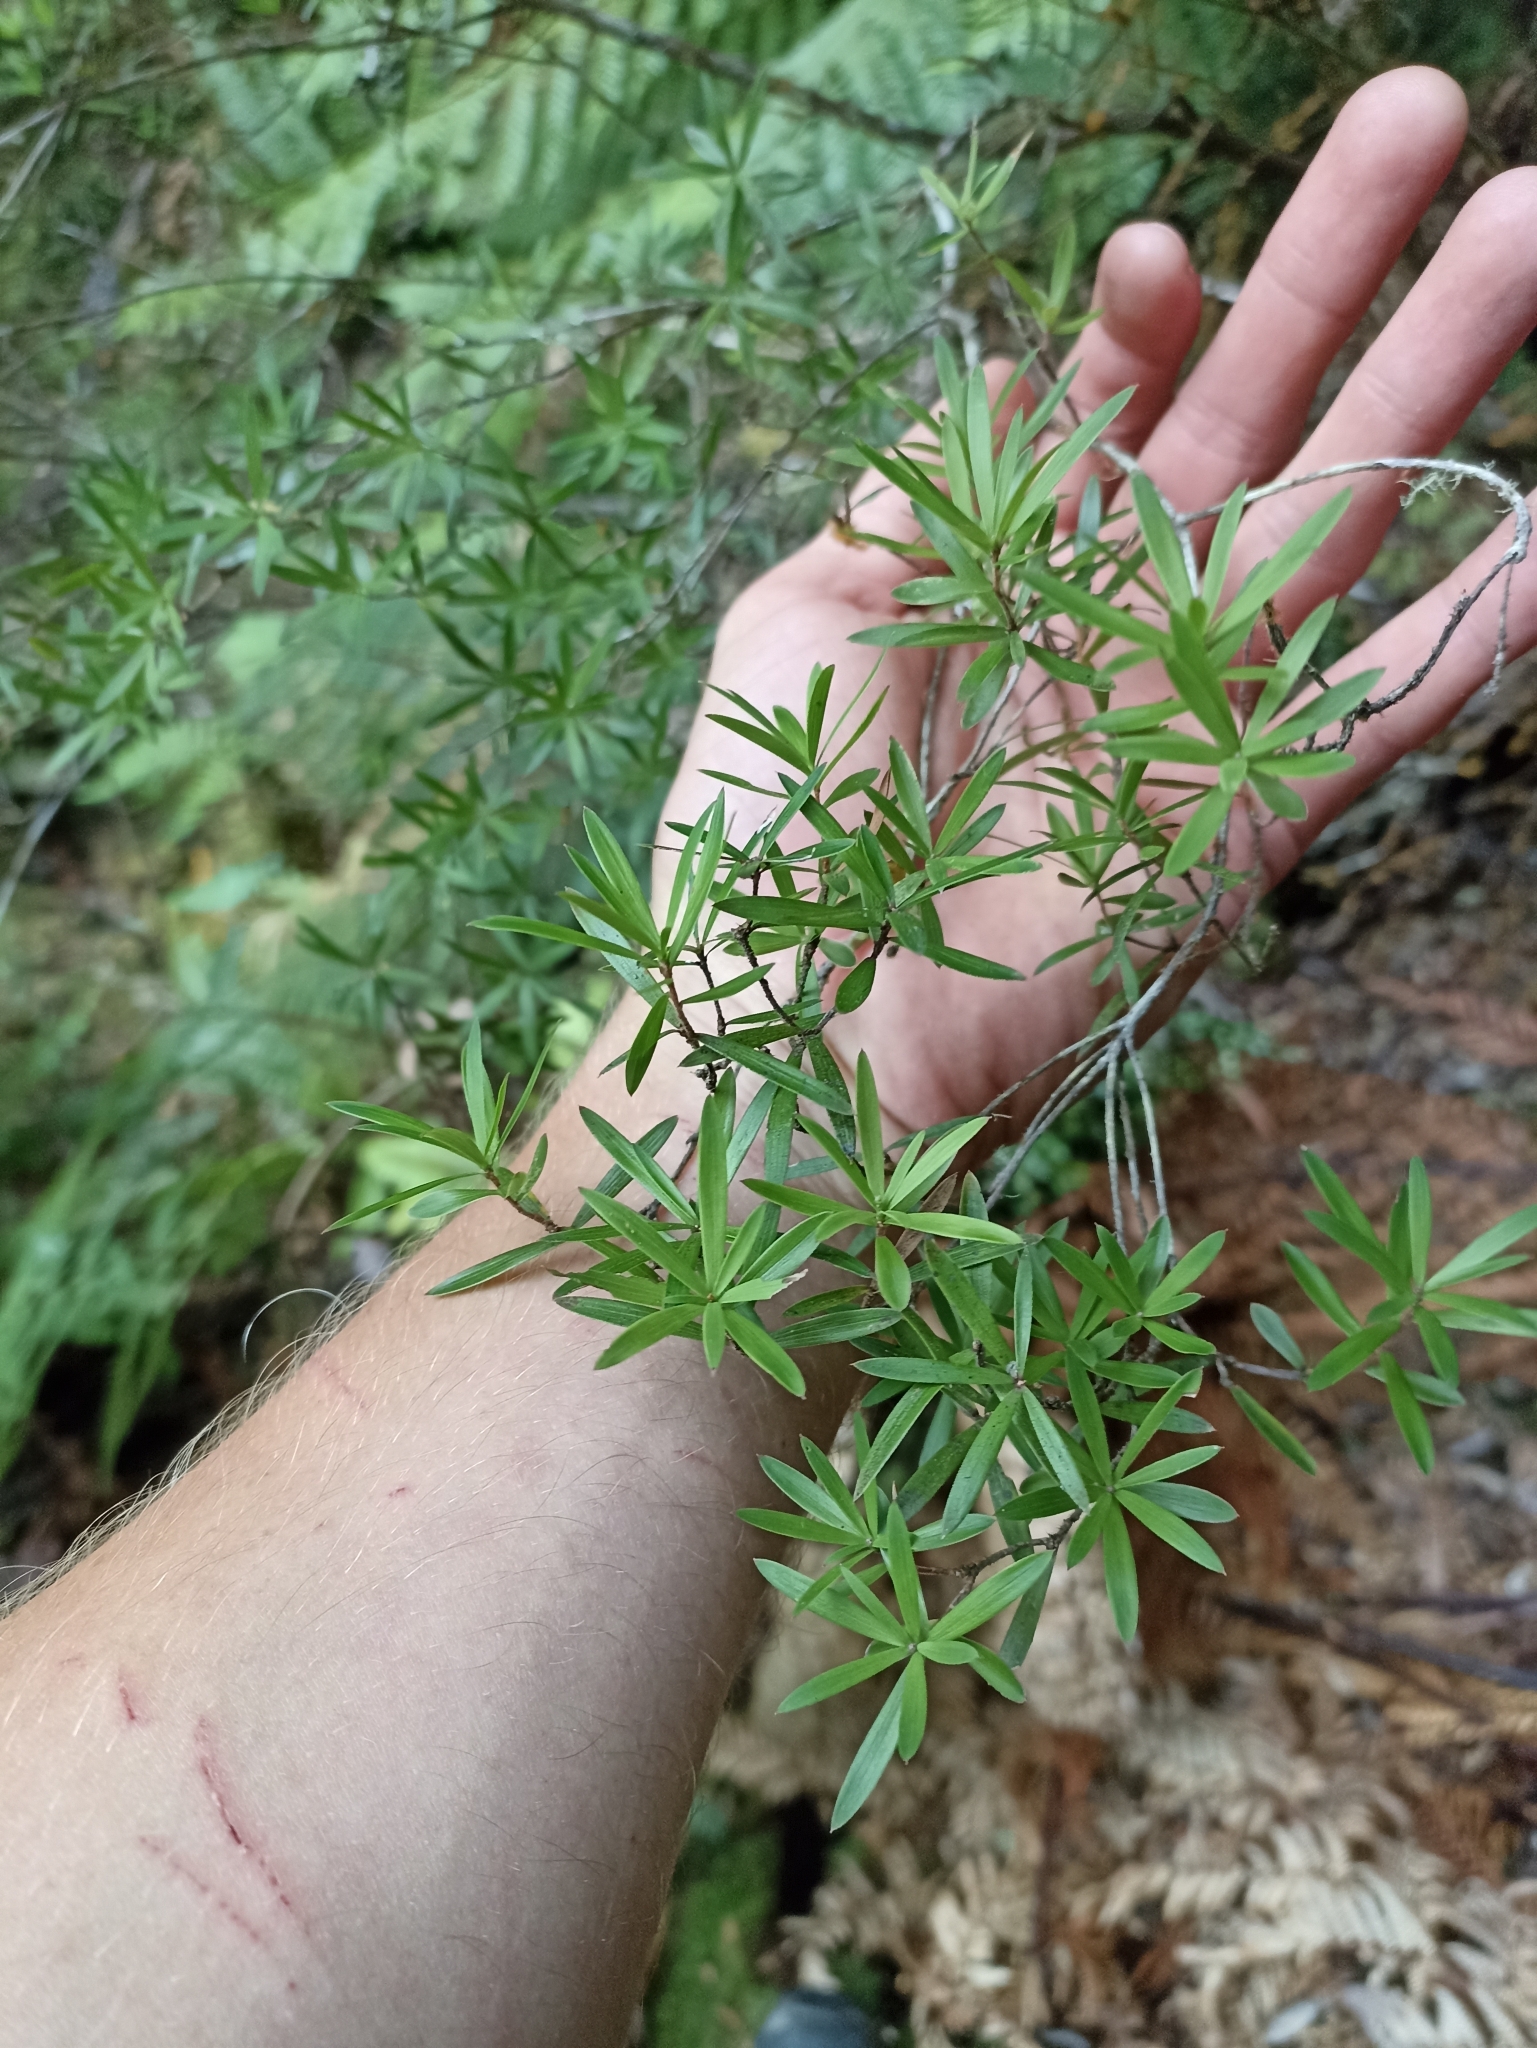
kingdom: Plantae
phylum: Tracheophyta
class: Magnoliopsida
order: Ericales
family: Ericaceae
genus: Leucopogon
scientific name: Leucopogon fasciculatus
